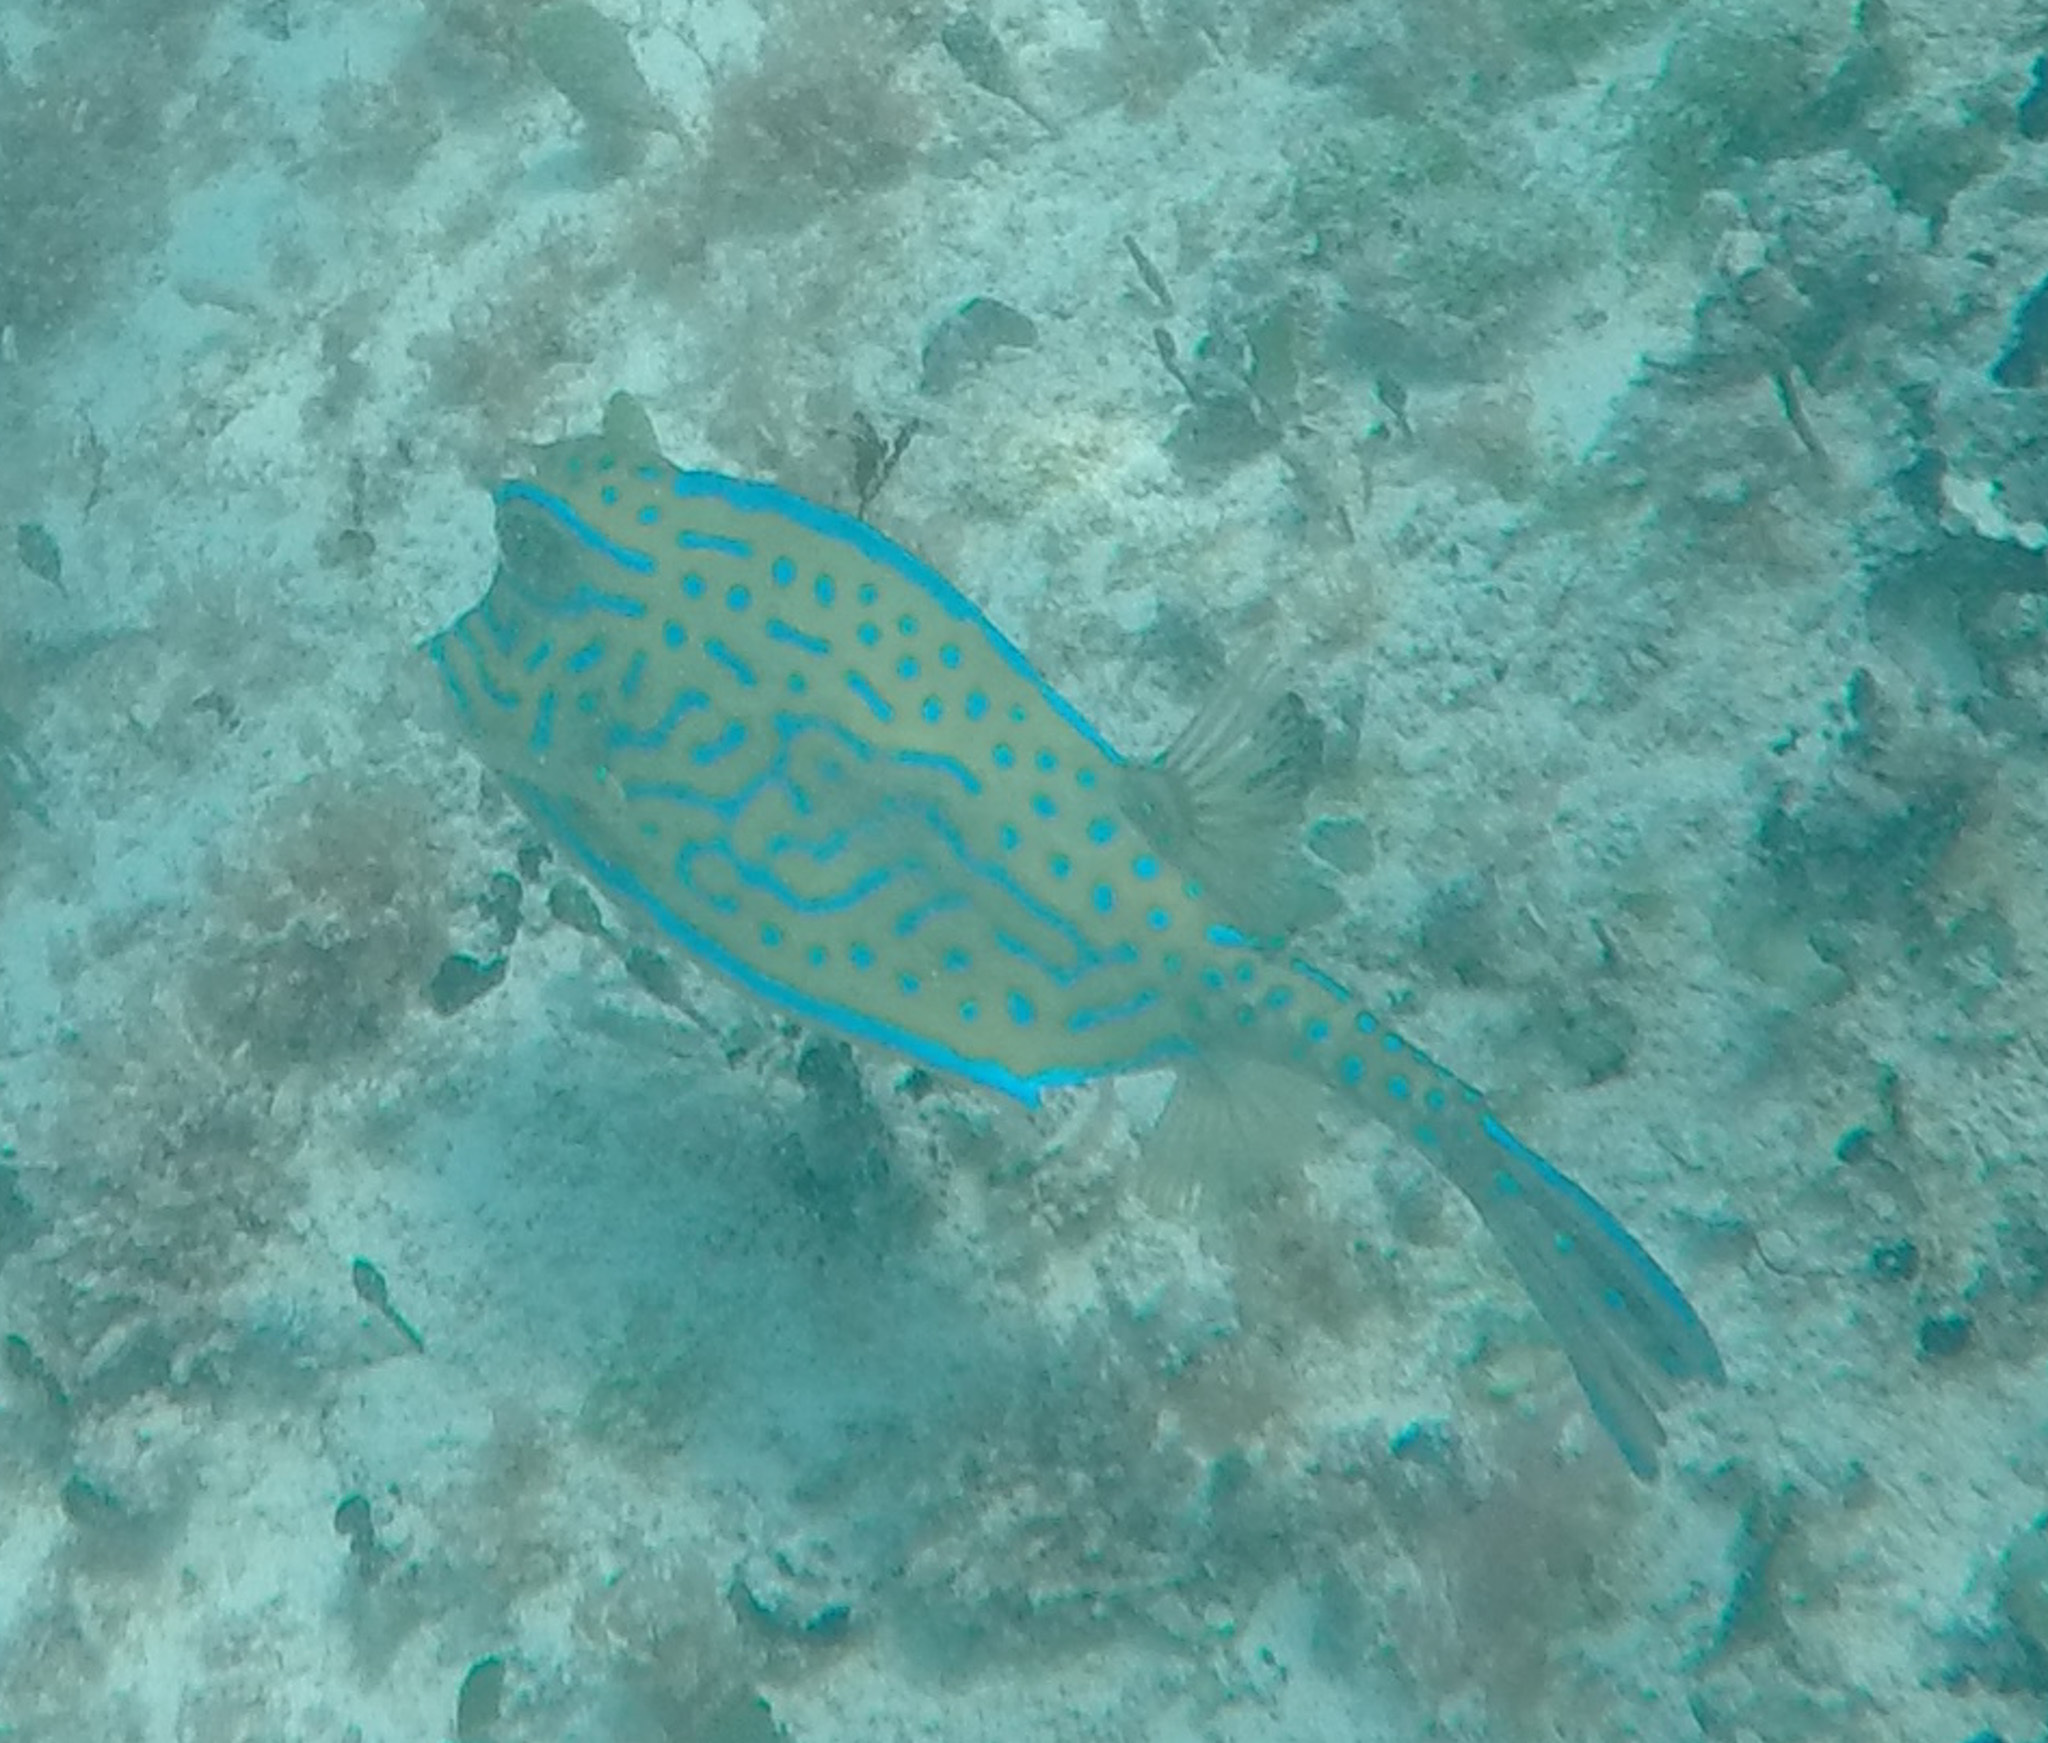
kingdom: Animalia
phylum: Chordata
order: Tetraodontiformes
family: Ostraciidae
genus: Acanthostracion
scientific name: Acanthostracion quadricornis
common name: Scrawled cowfish
